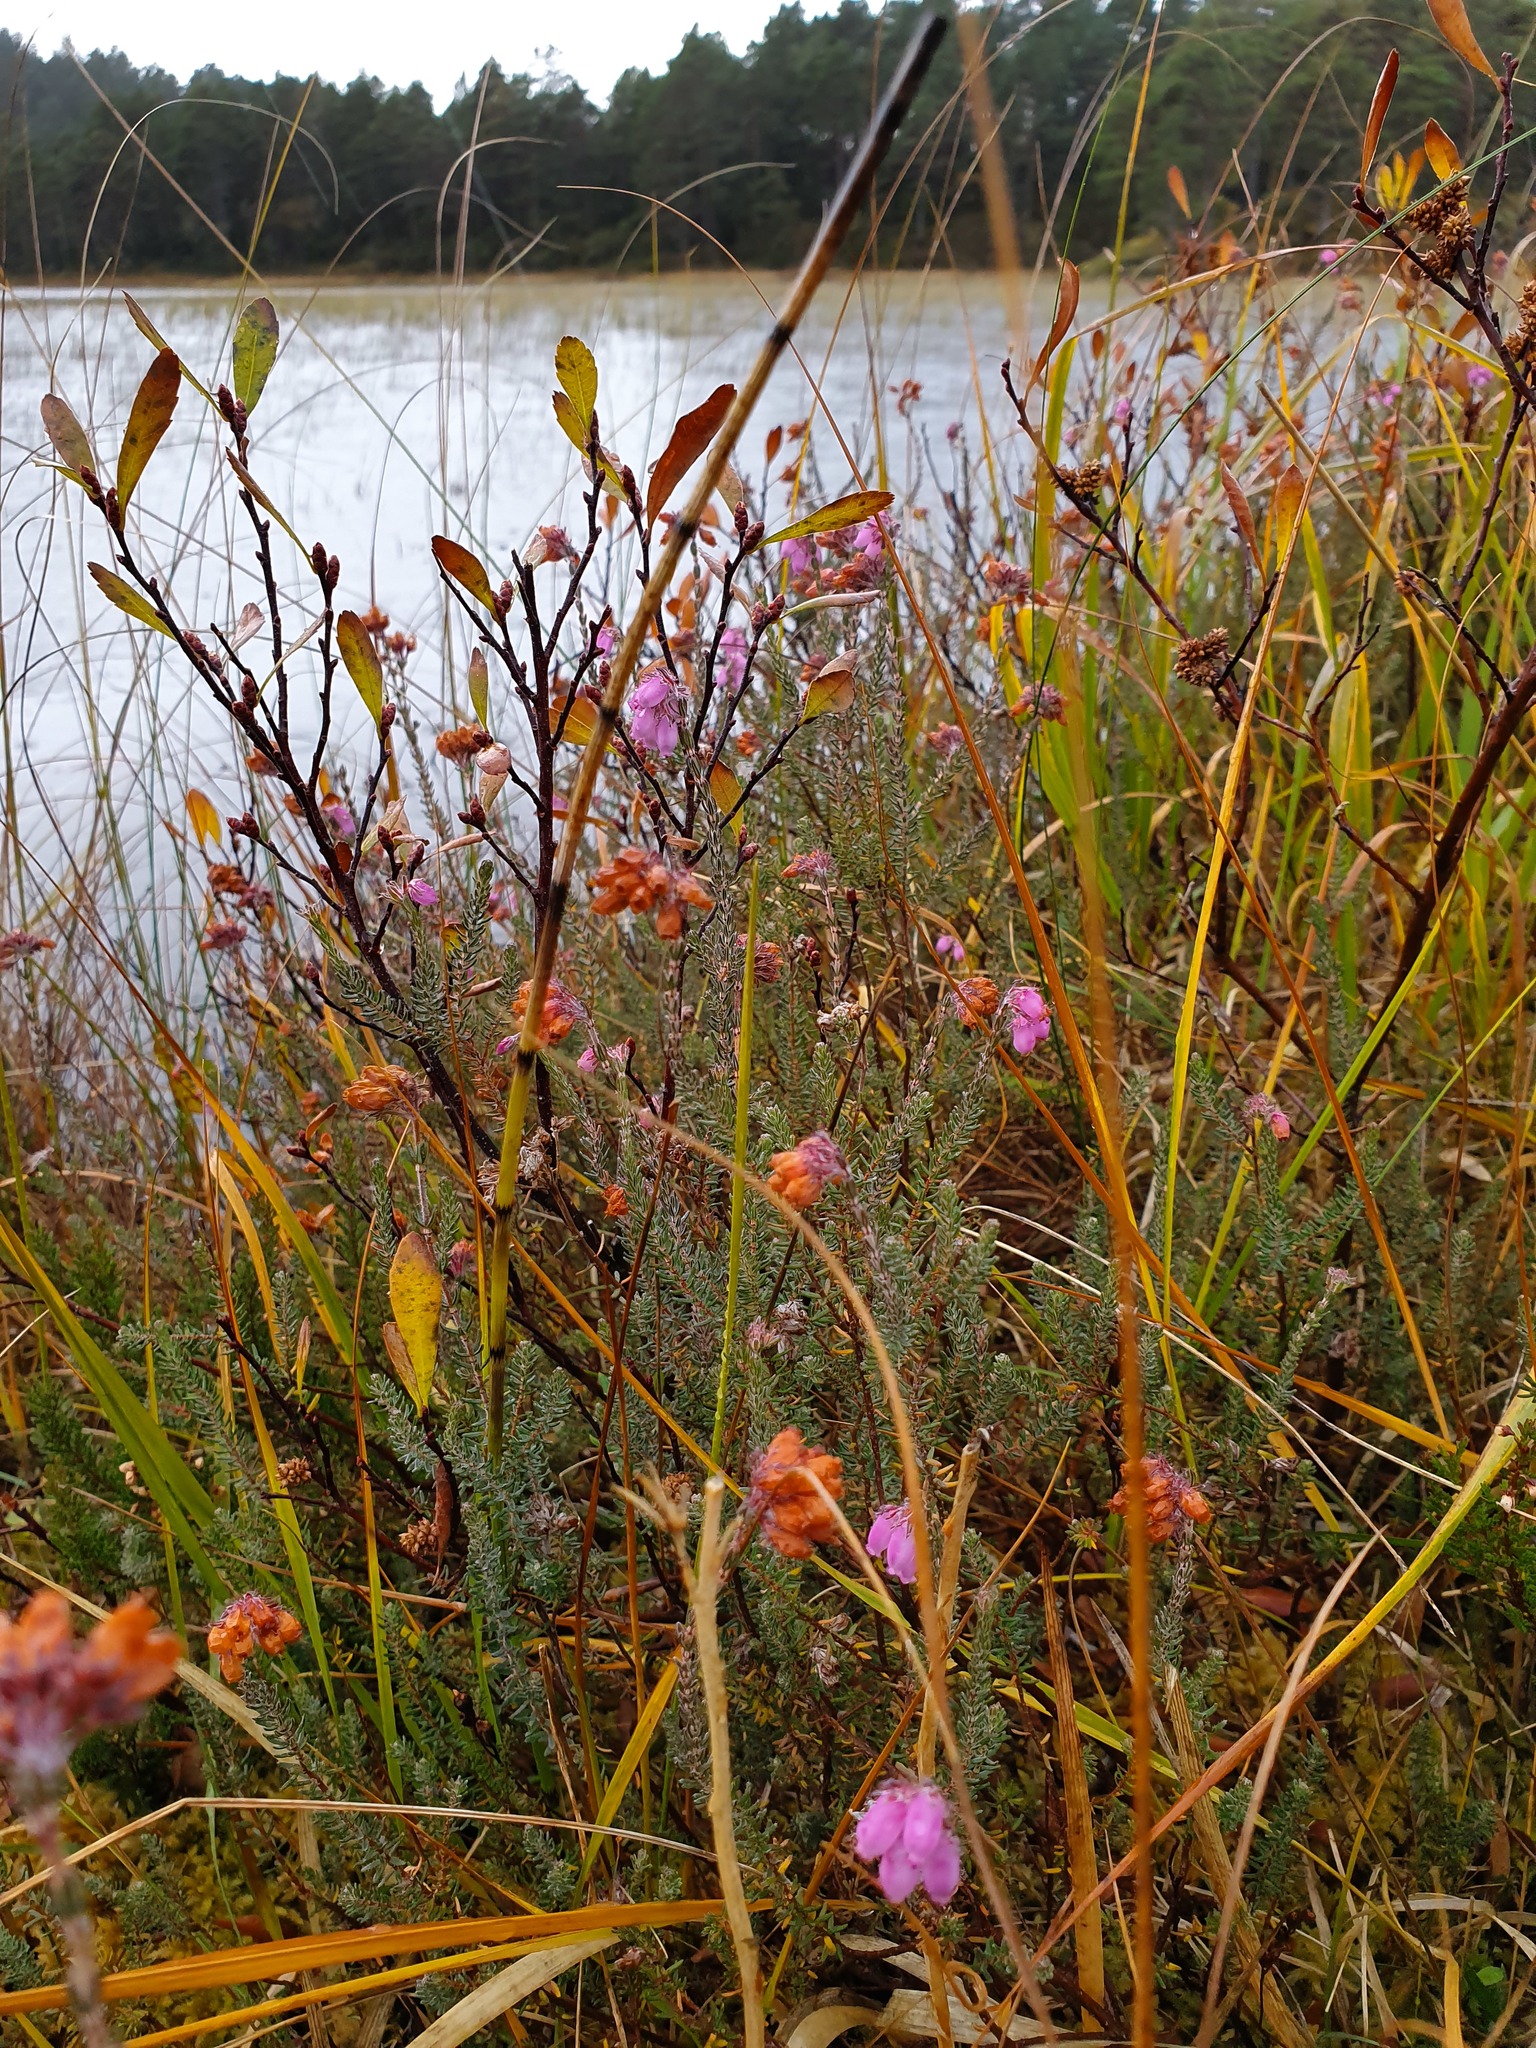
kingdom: Plantae
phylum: Tracheophyta
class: Magnoliopsida
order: Ericales
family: Ericaceae
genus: Erica
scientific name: Erica tetralix
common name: Cross-leaved heath
